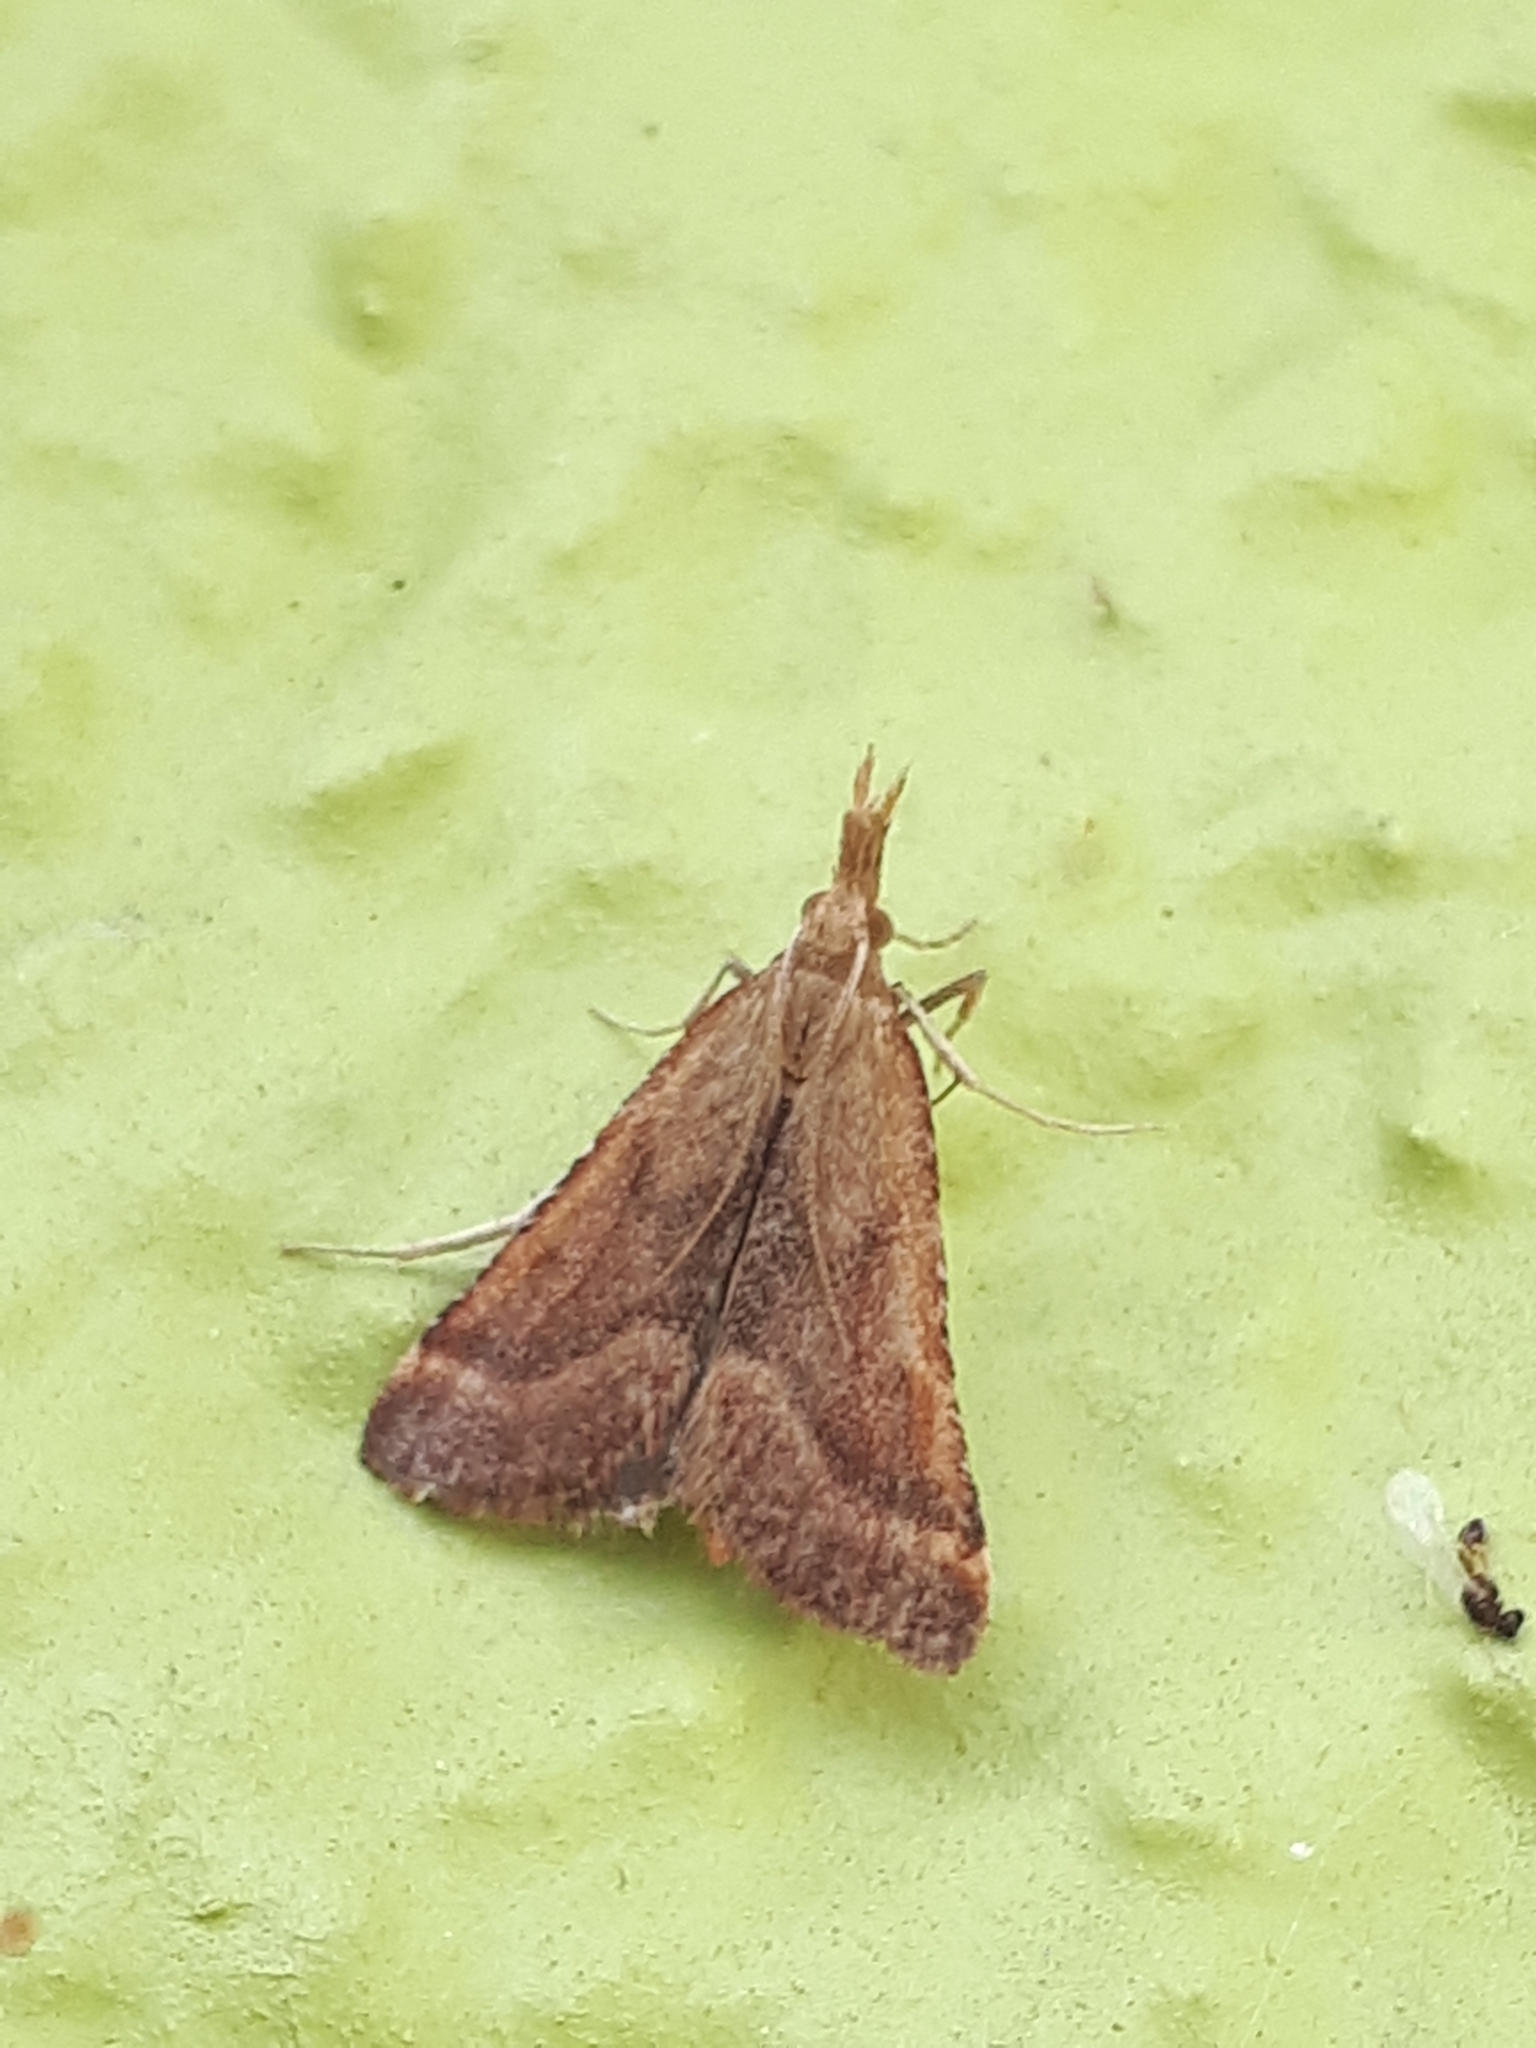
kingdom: Animalia
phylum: Arthropoda
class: Insecta
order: Lepidoptera
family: Pyralidae
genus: Synaphe
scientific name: Synaphe punctalis
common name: Long-legged tabby
